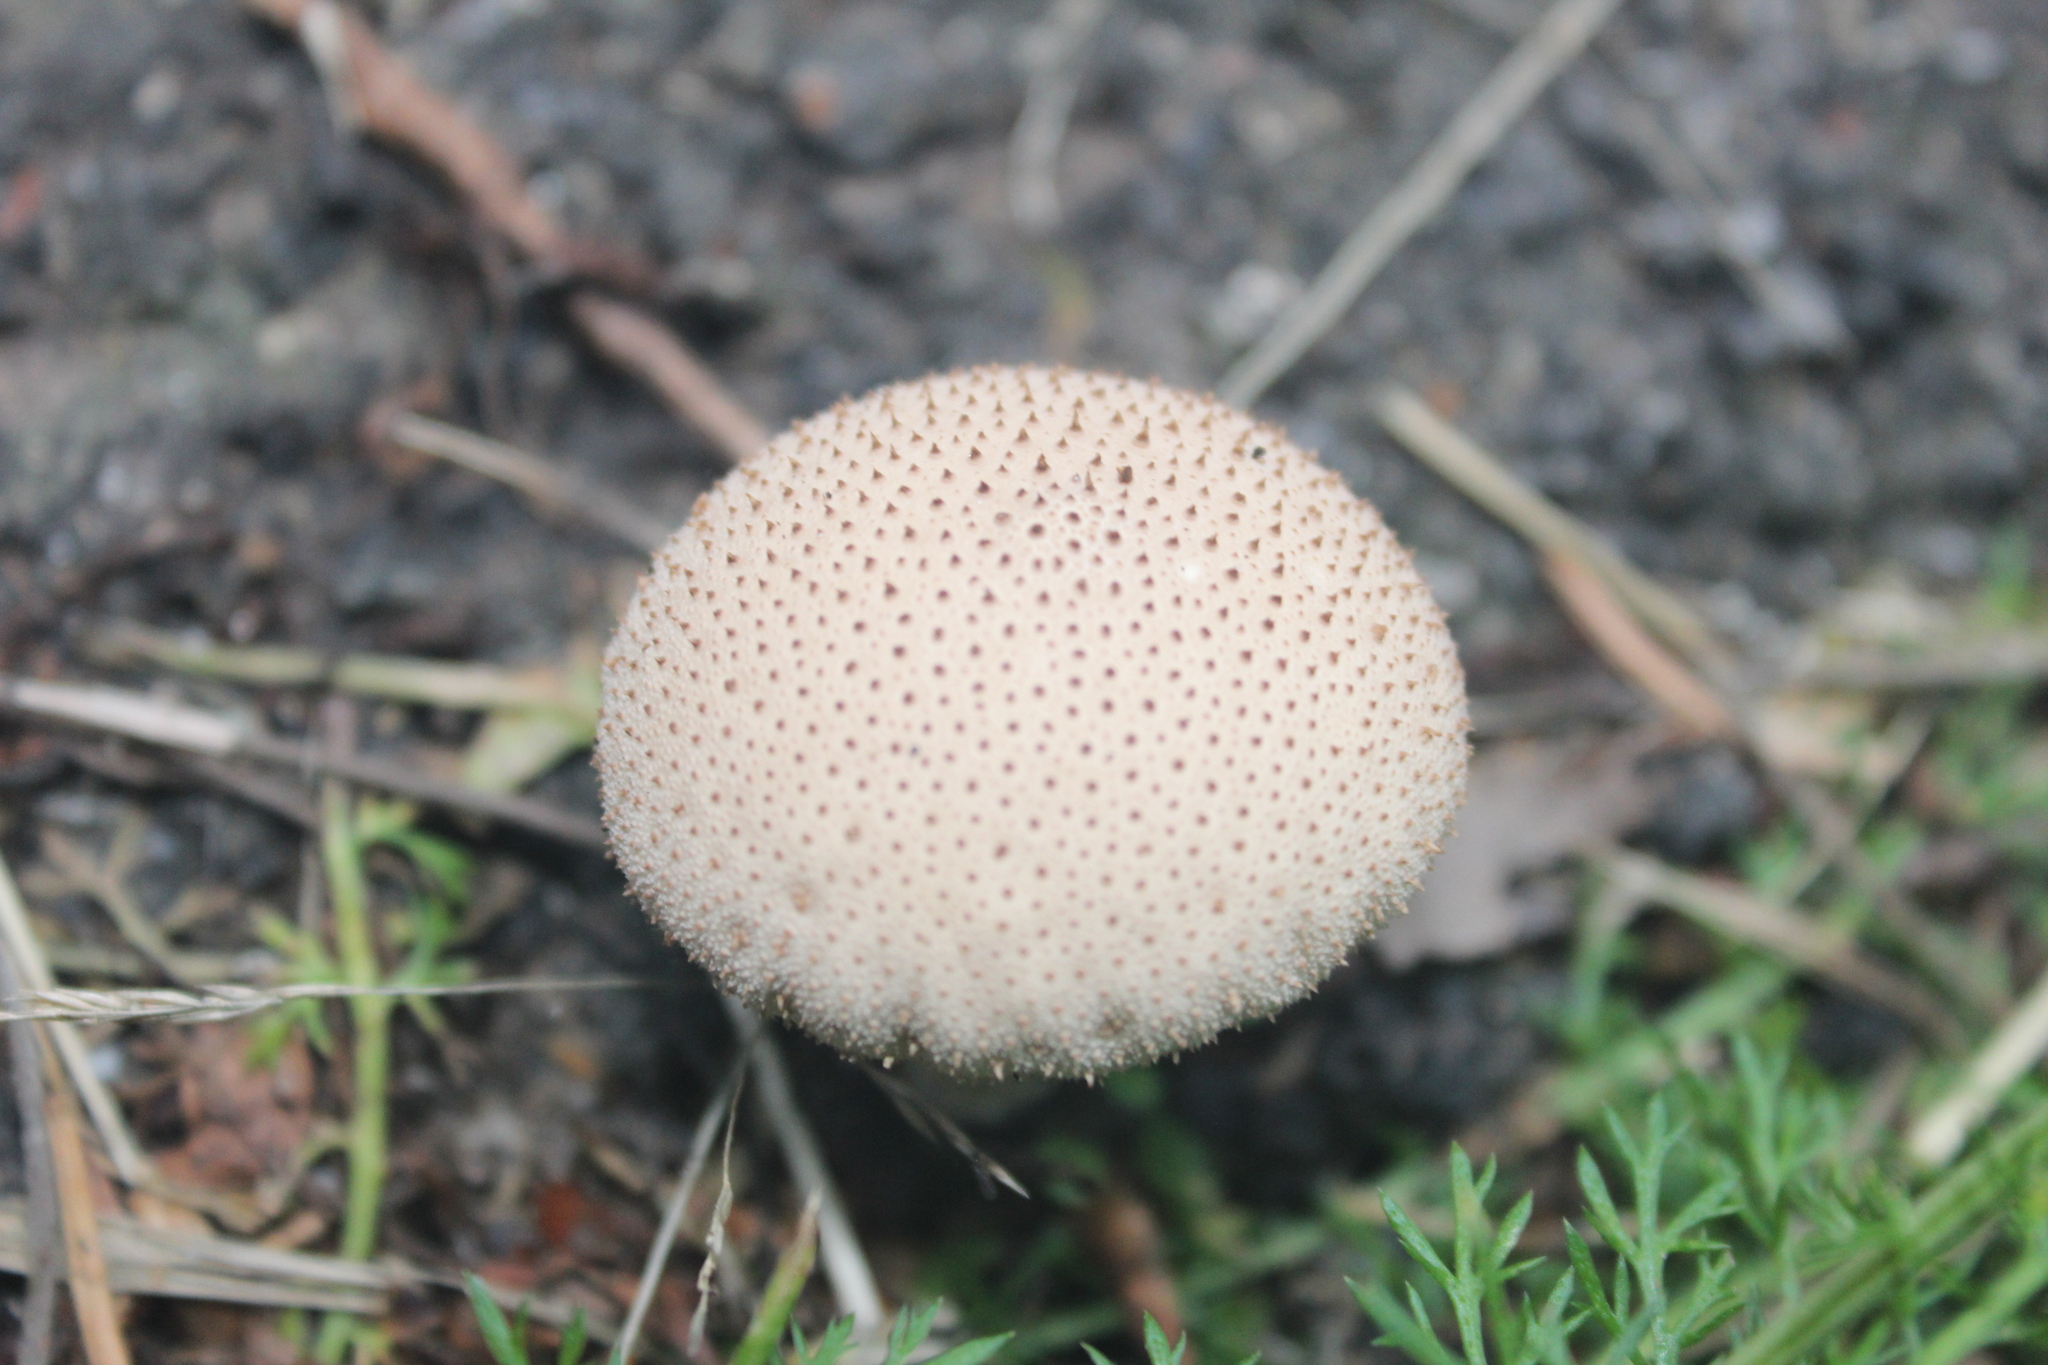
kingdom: Fungi
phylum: Basidiomycota
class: Agaricomycetes
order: Agaricales
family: Lycoperdaceae
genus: Lycoperdon
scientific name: Lycoperdon perlatum
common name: Common puffball
